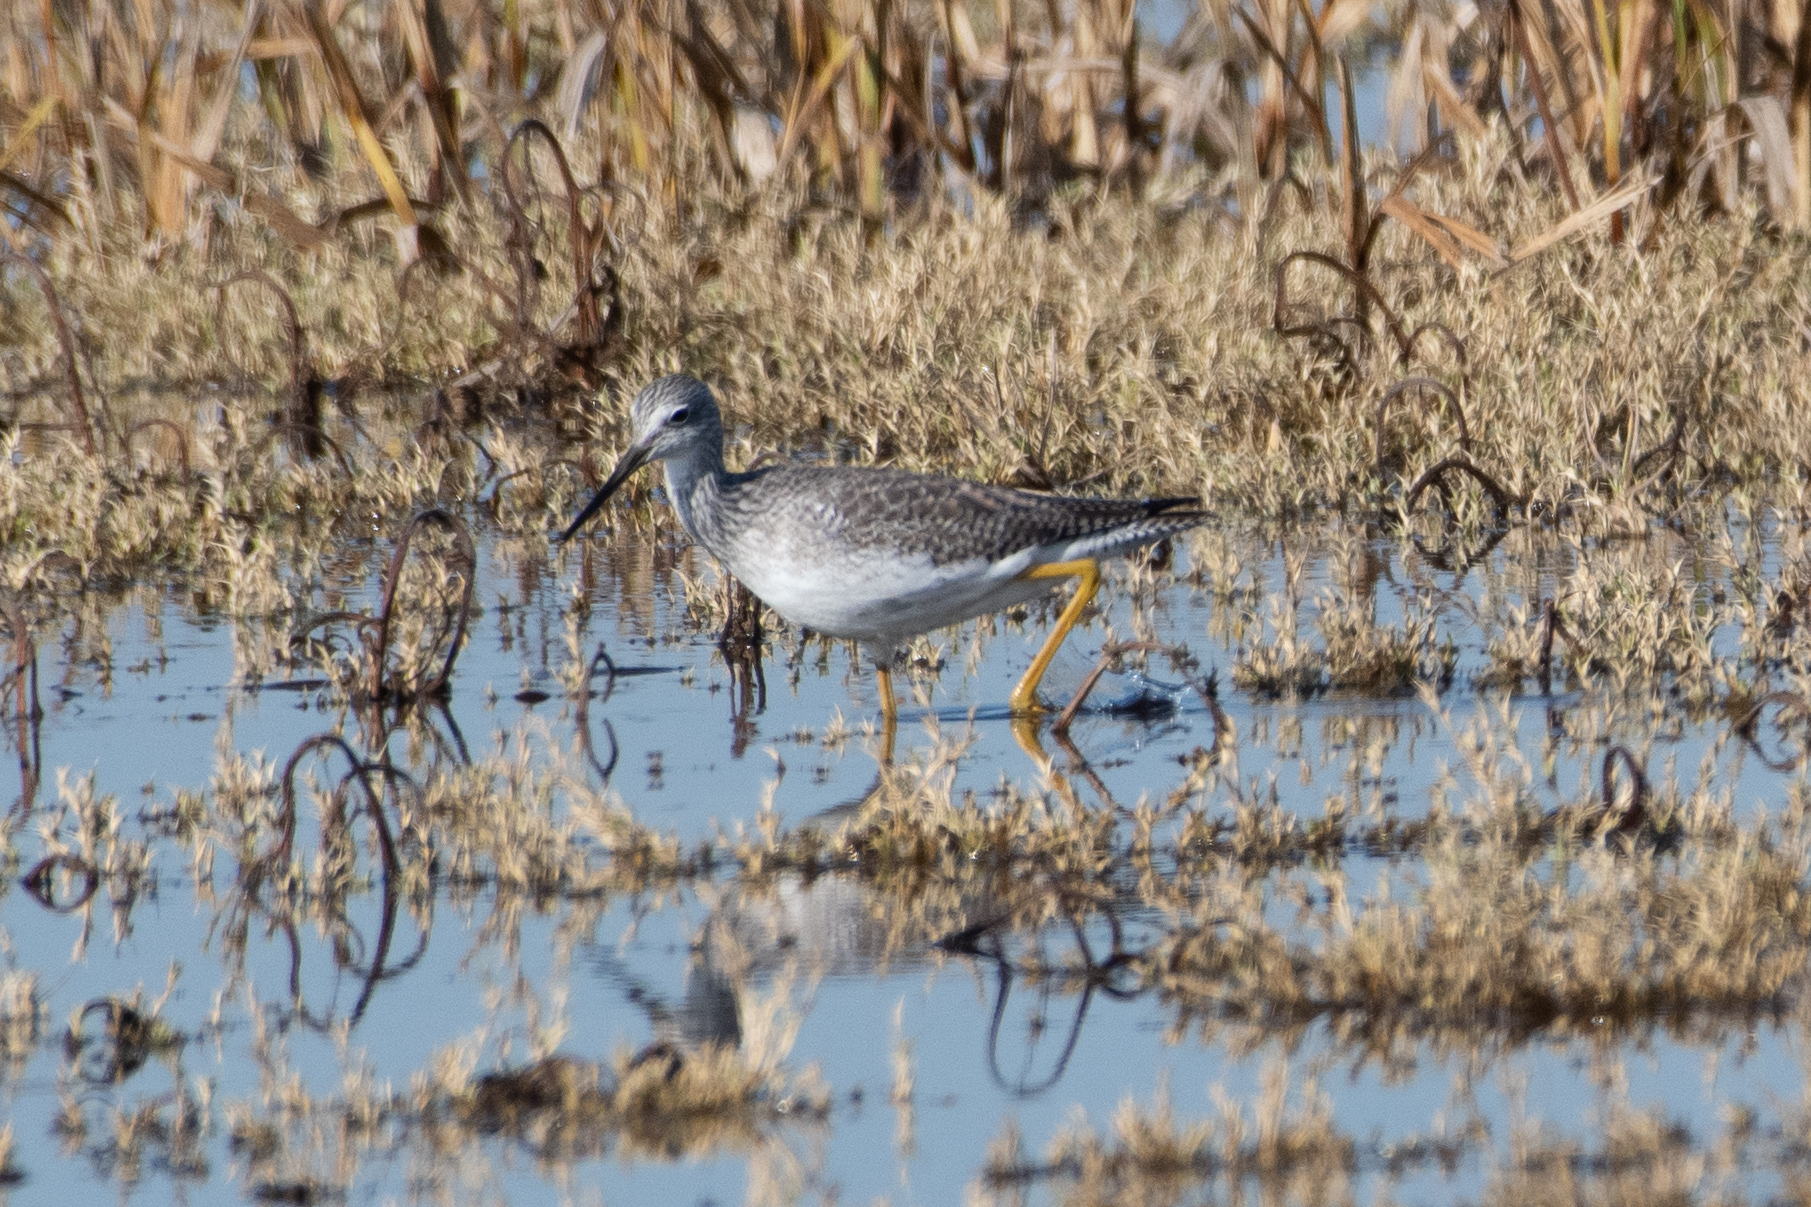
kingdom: Animalia
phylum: Chordata
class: Aves
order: Charadriiformes
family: Scolopacidae
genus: Tringa
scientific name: Tringa melanoleuca
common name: Greater yellowlegs
